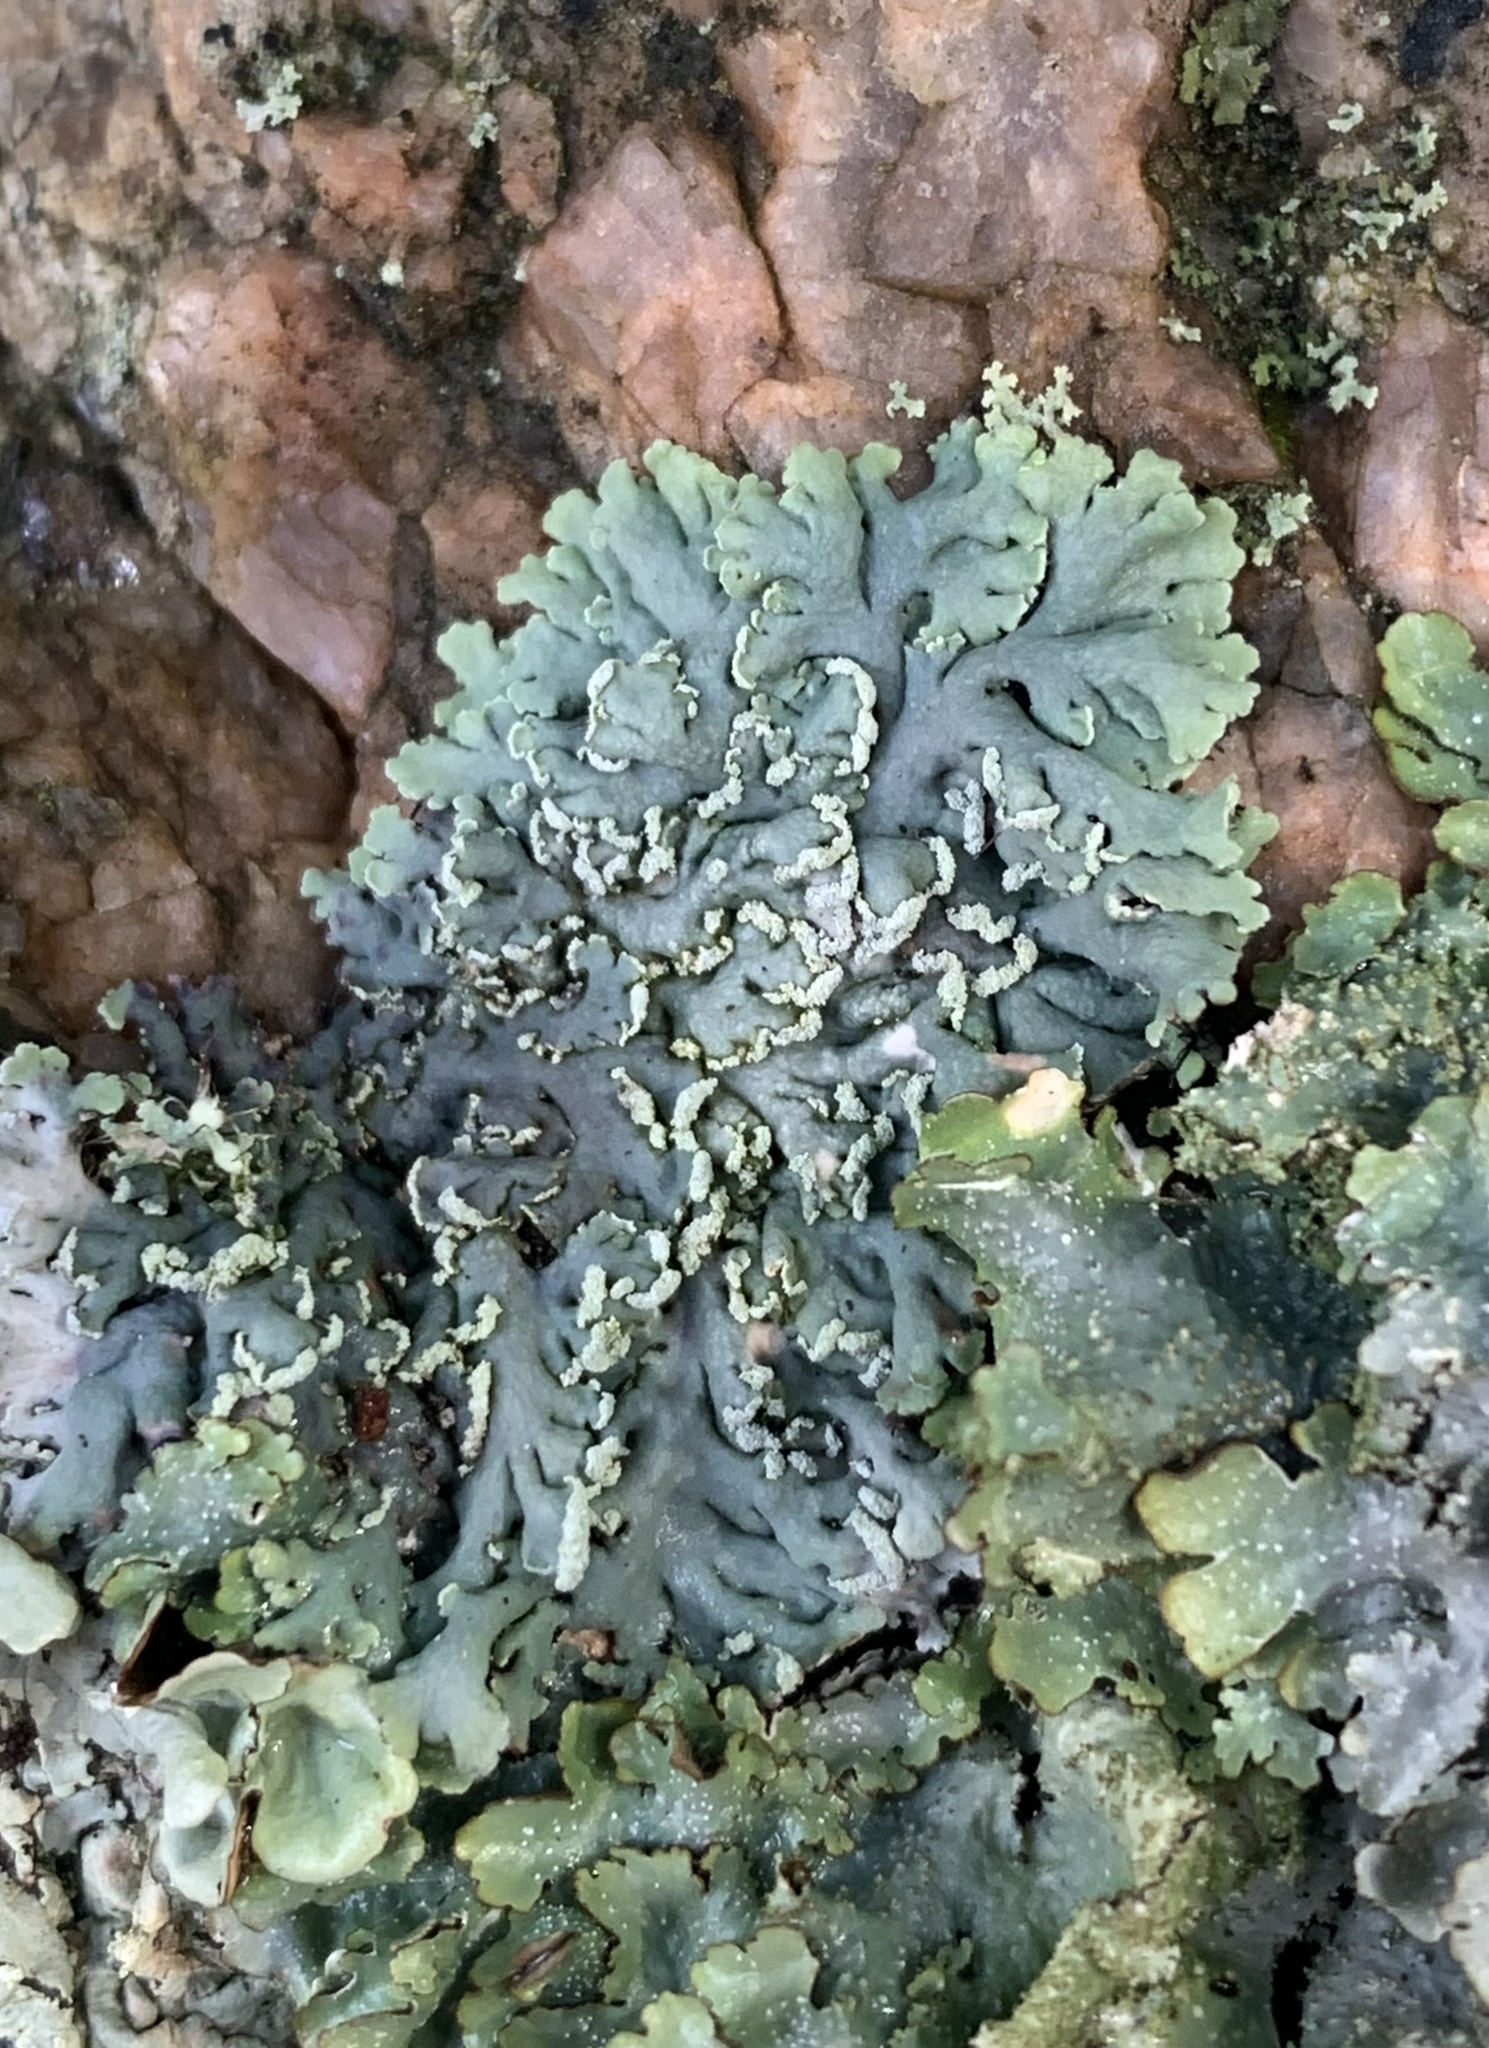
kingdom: Fungi
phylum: Ascomycota
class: Lecanoromycetes
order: Caliciales
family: Physciaceae
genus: Heterodermia
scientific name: Heterodermia obscurata
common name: Coralloid rosette-lichen
